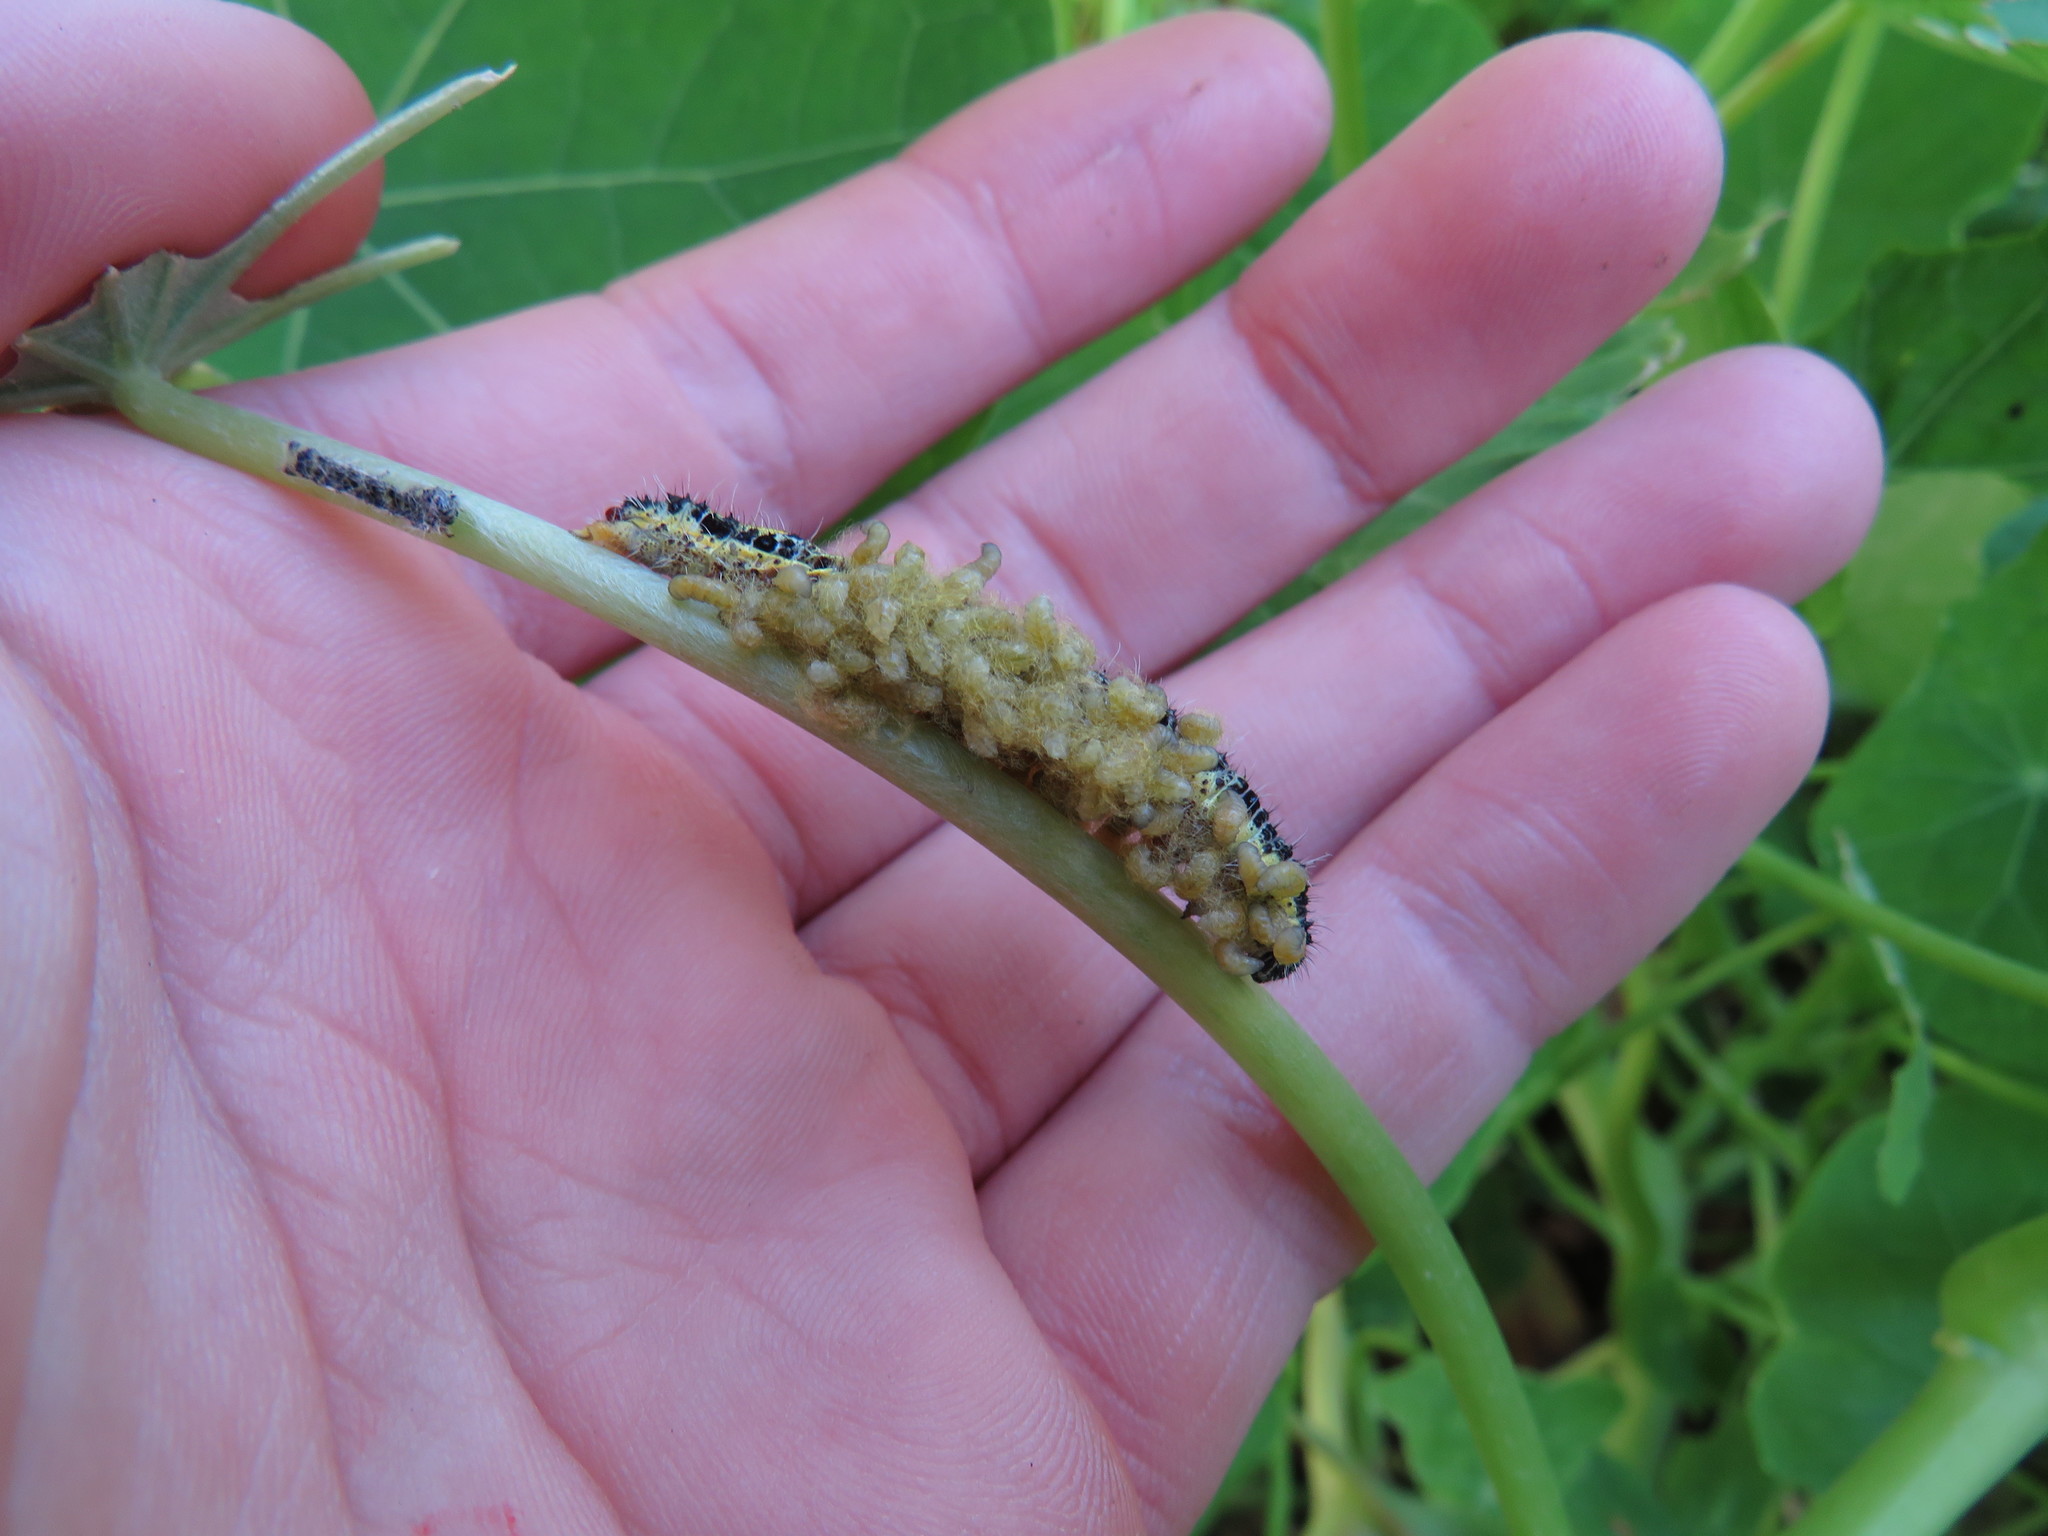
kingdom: Animalia
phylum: Arthropoda
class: Insecta
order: Lepidoptera
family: Pieridae
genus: Pieris
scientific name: Pieris brassicae
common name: Large white
